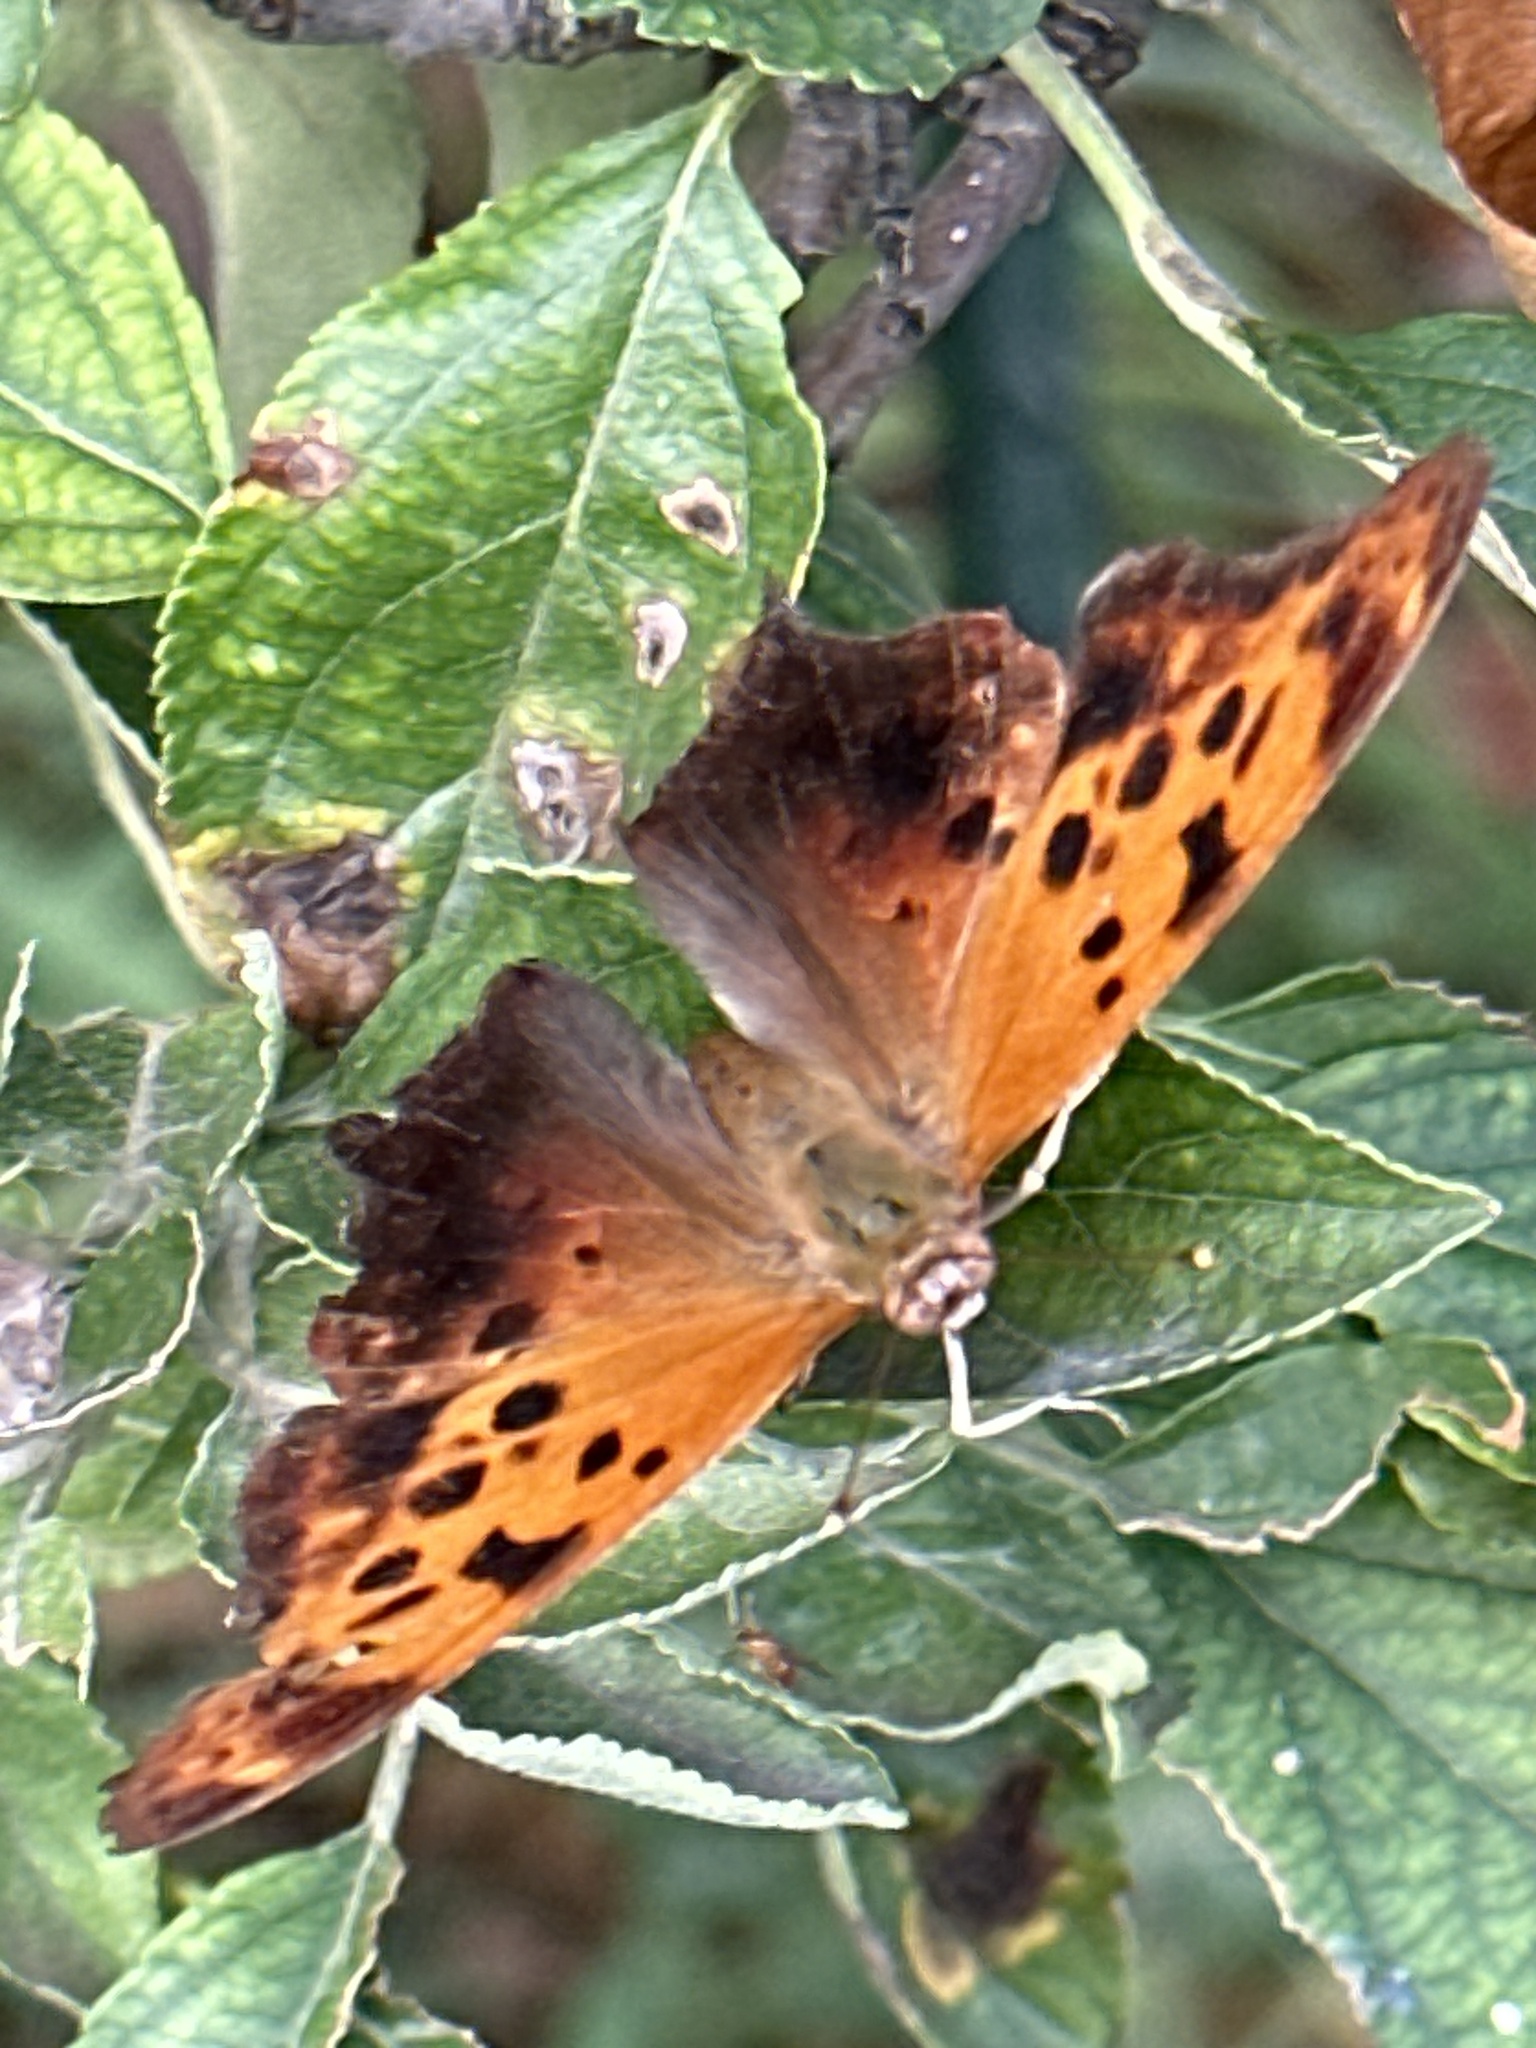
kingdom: Animalia
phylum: Arthropoda
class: Insecta
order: Lepidoptera
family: Nymphalidae
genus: Polygonia
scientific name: Polygonia interrogationis
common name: Question mark
